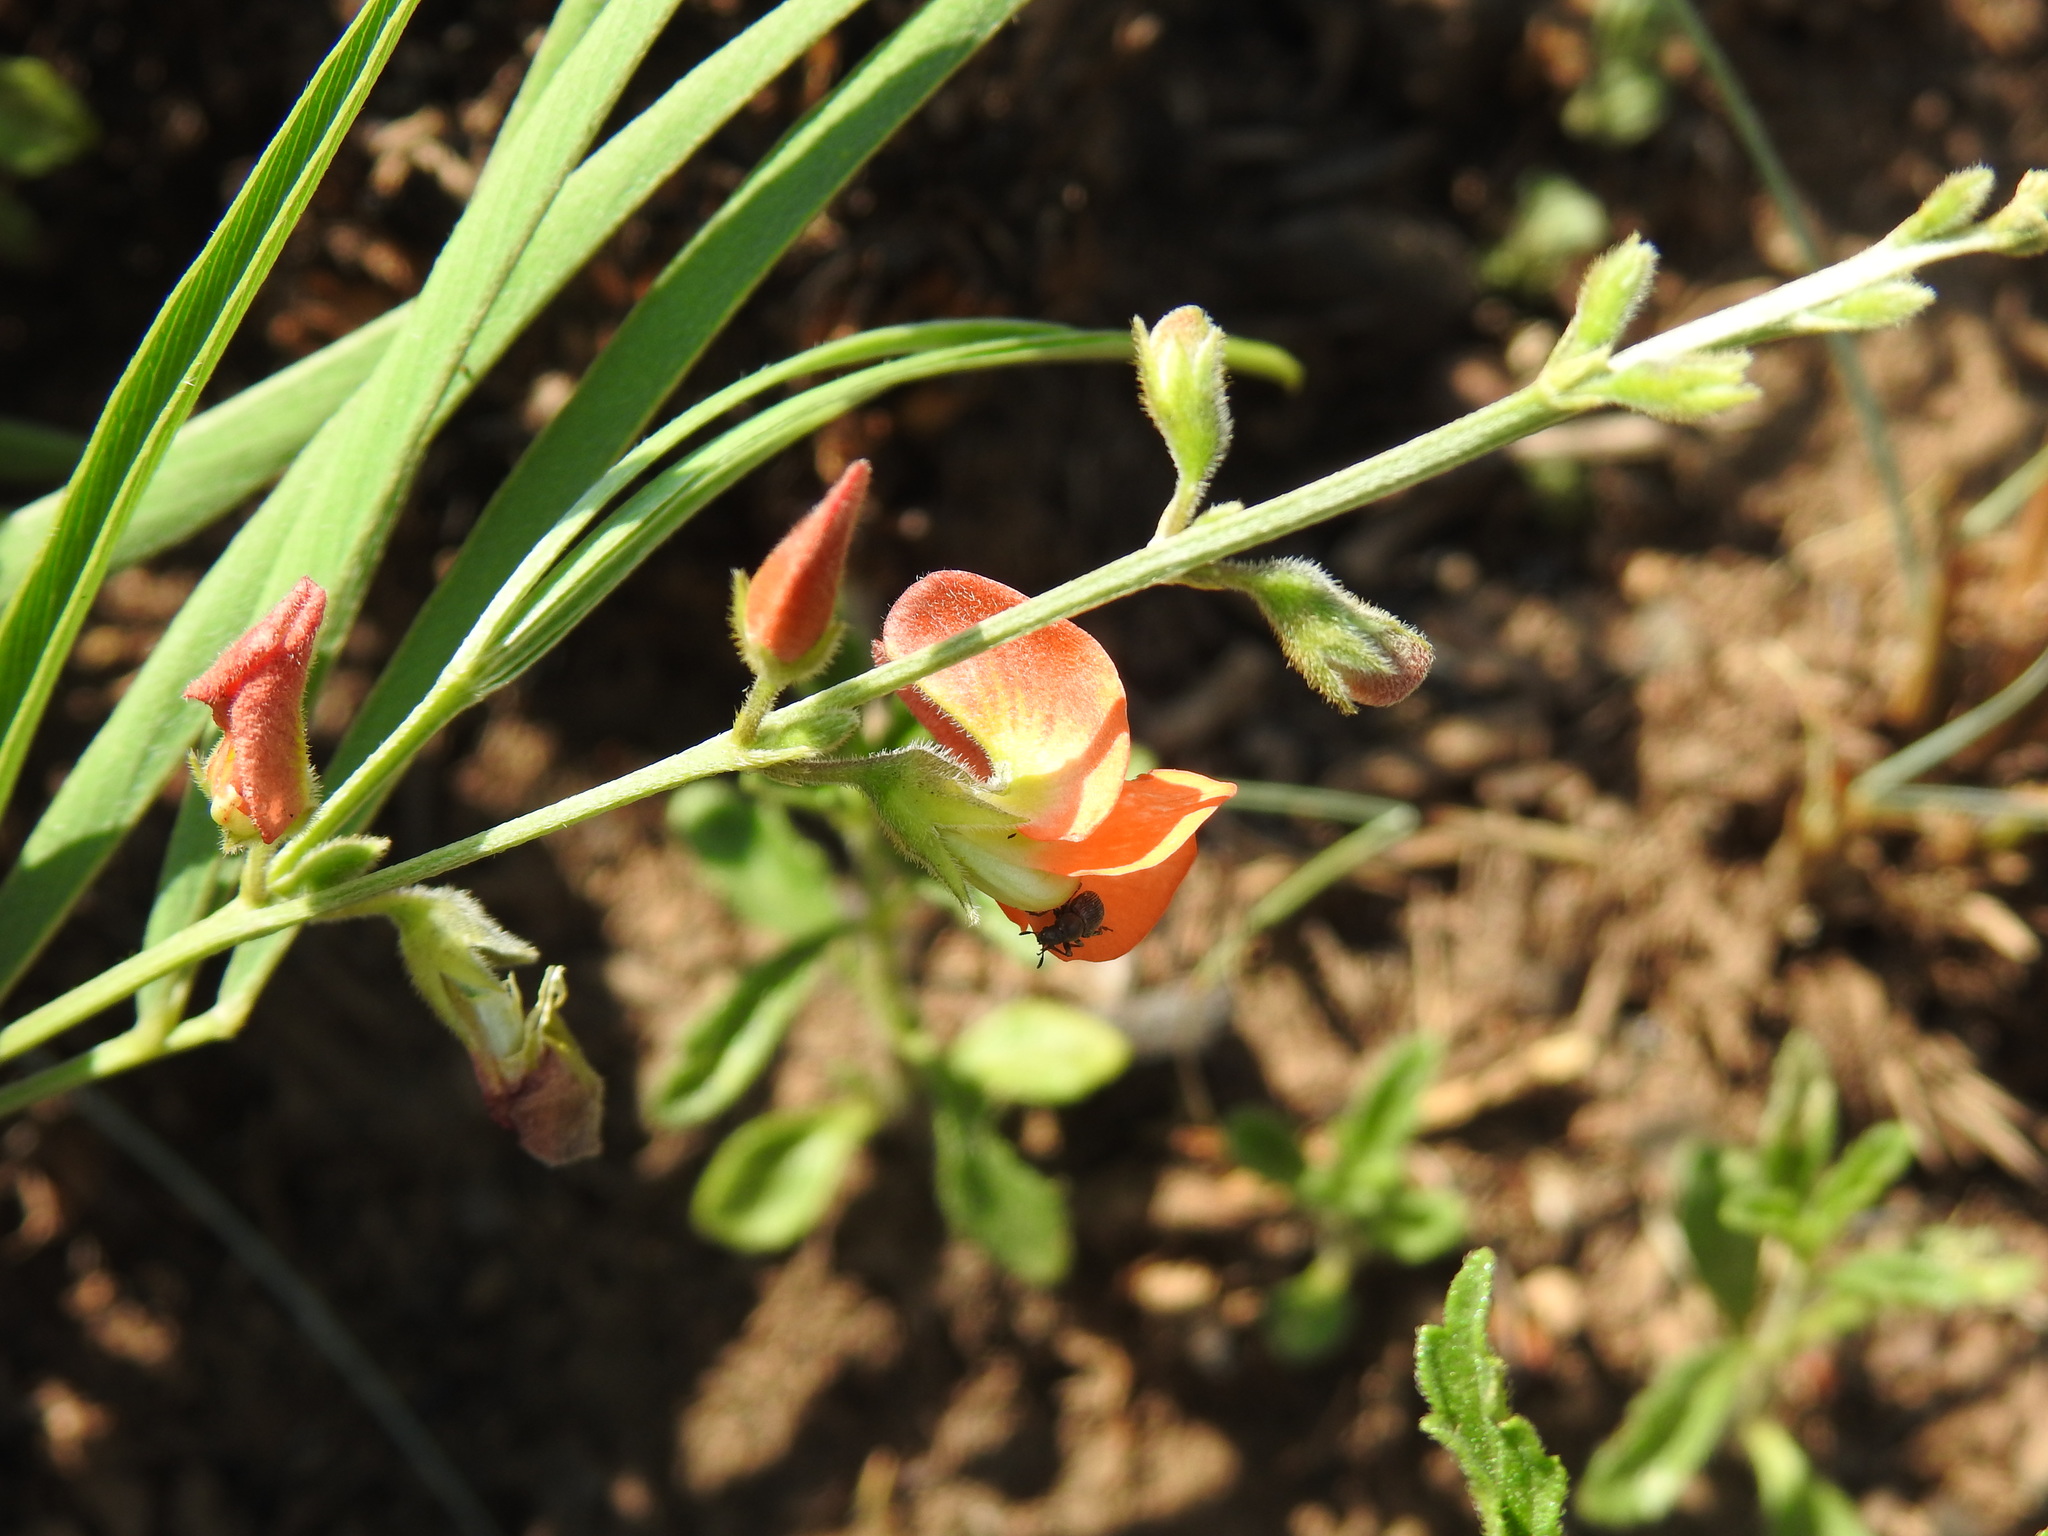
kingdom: Plantae
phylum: Tracheophyta
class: Magnoliopsida
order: Fabales
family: Fabaceae
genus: Tephrosia
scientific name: Tephrosia elongata
